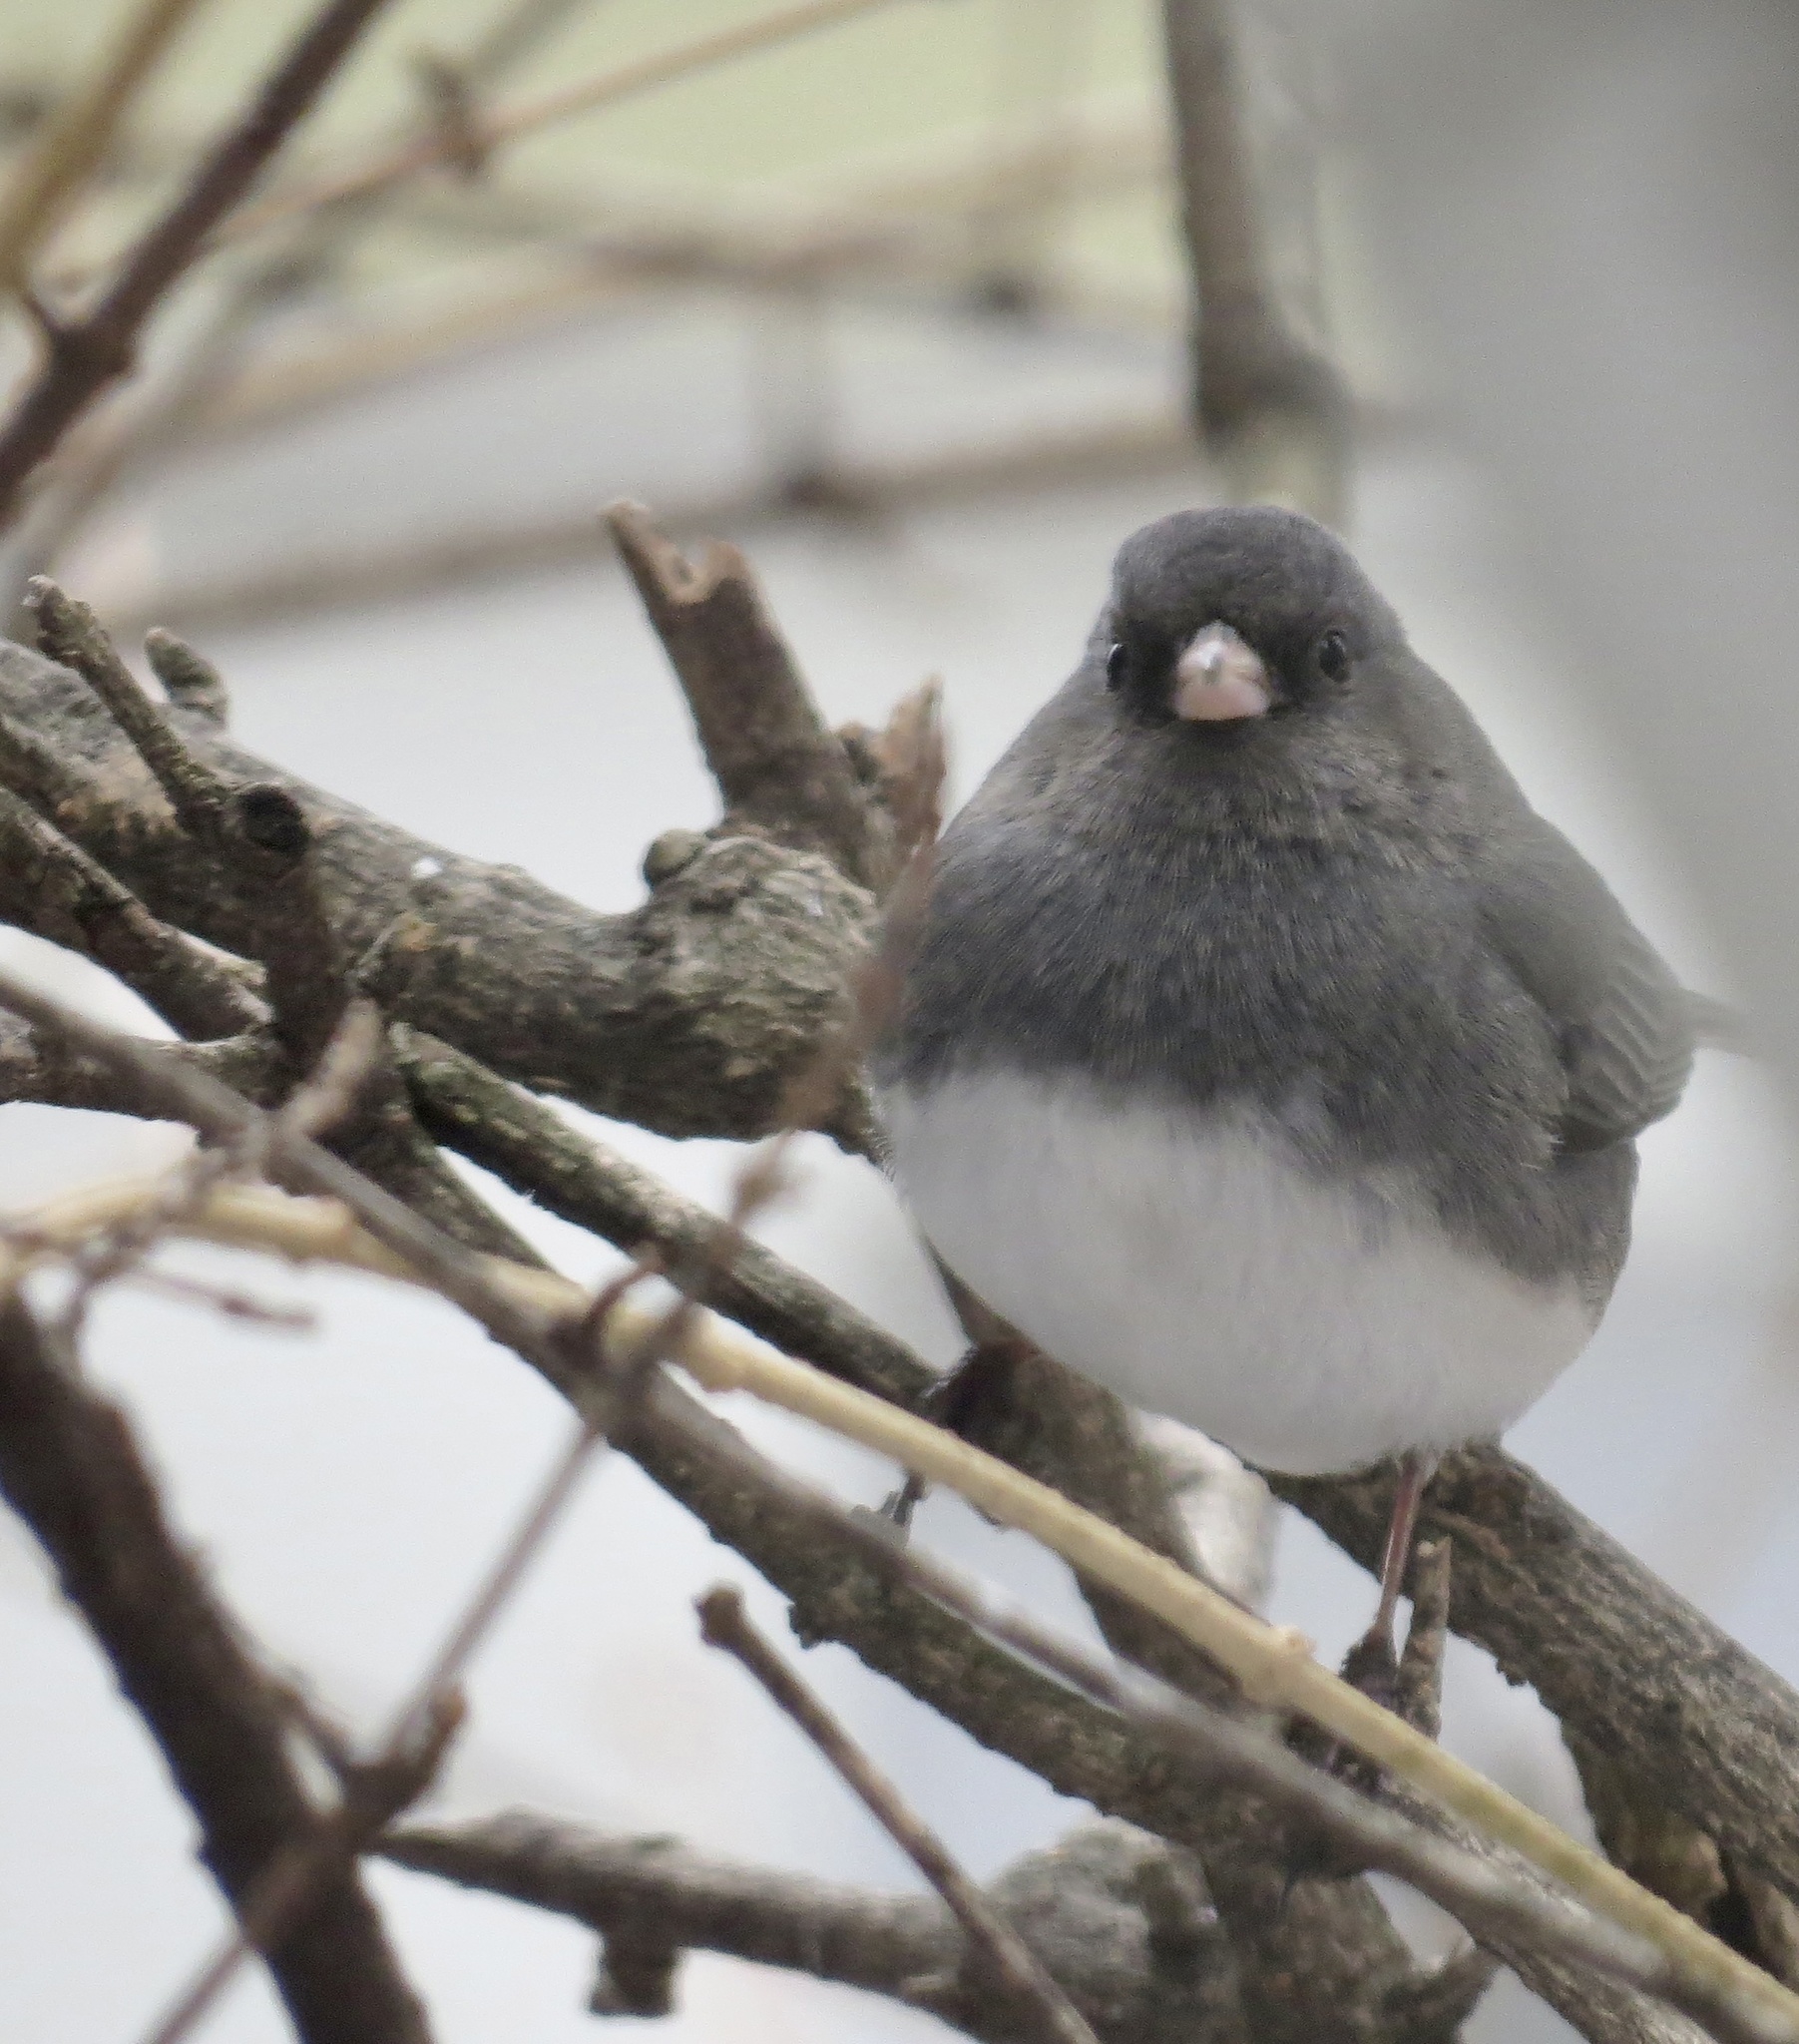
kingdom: Animalia
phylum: Chordata
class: Aves
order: Passeriformes
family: Passerellidae
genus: Junco
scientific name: Junco hyemalis
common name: Dark-eyed junco
